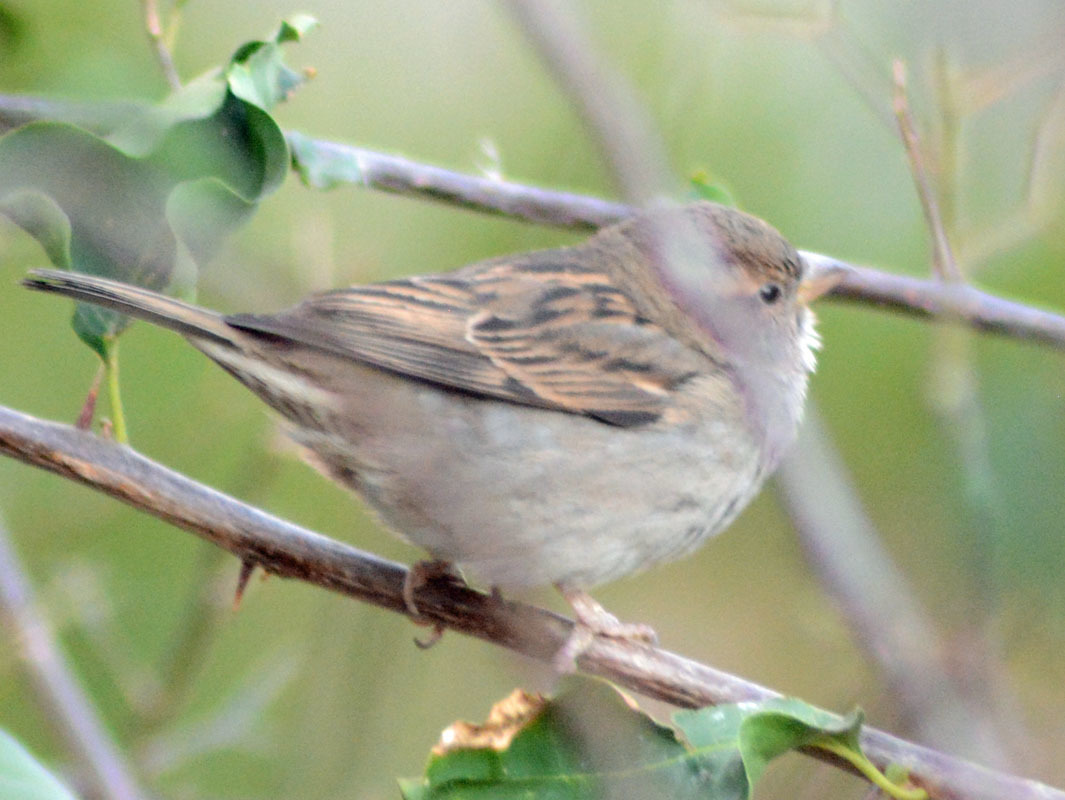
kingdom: Animalia
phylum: Chordata
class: Aves
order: Passeriformes
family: Passeridae
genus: Passer
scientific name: Passer domesticus
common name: House sparrow
